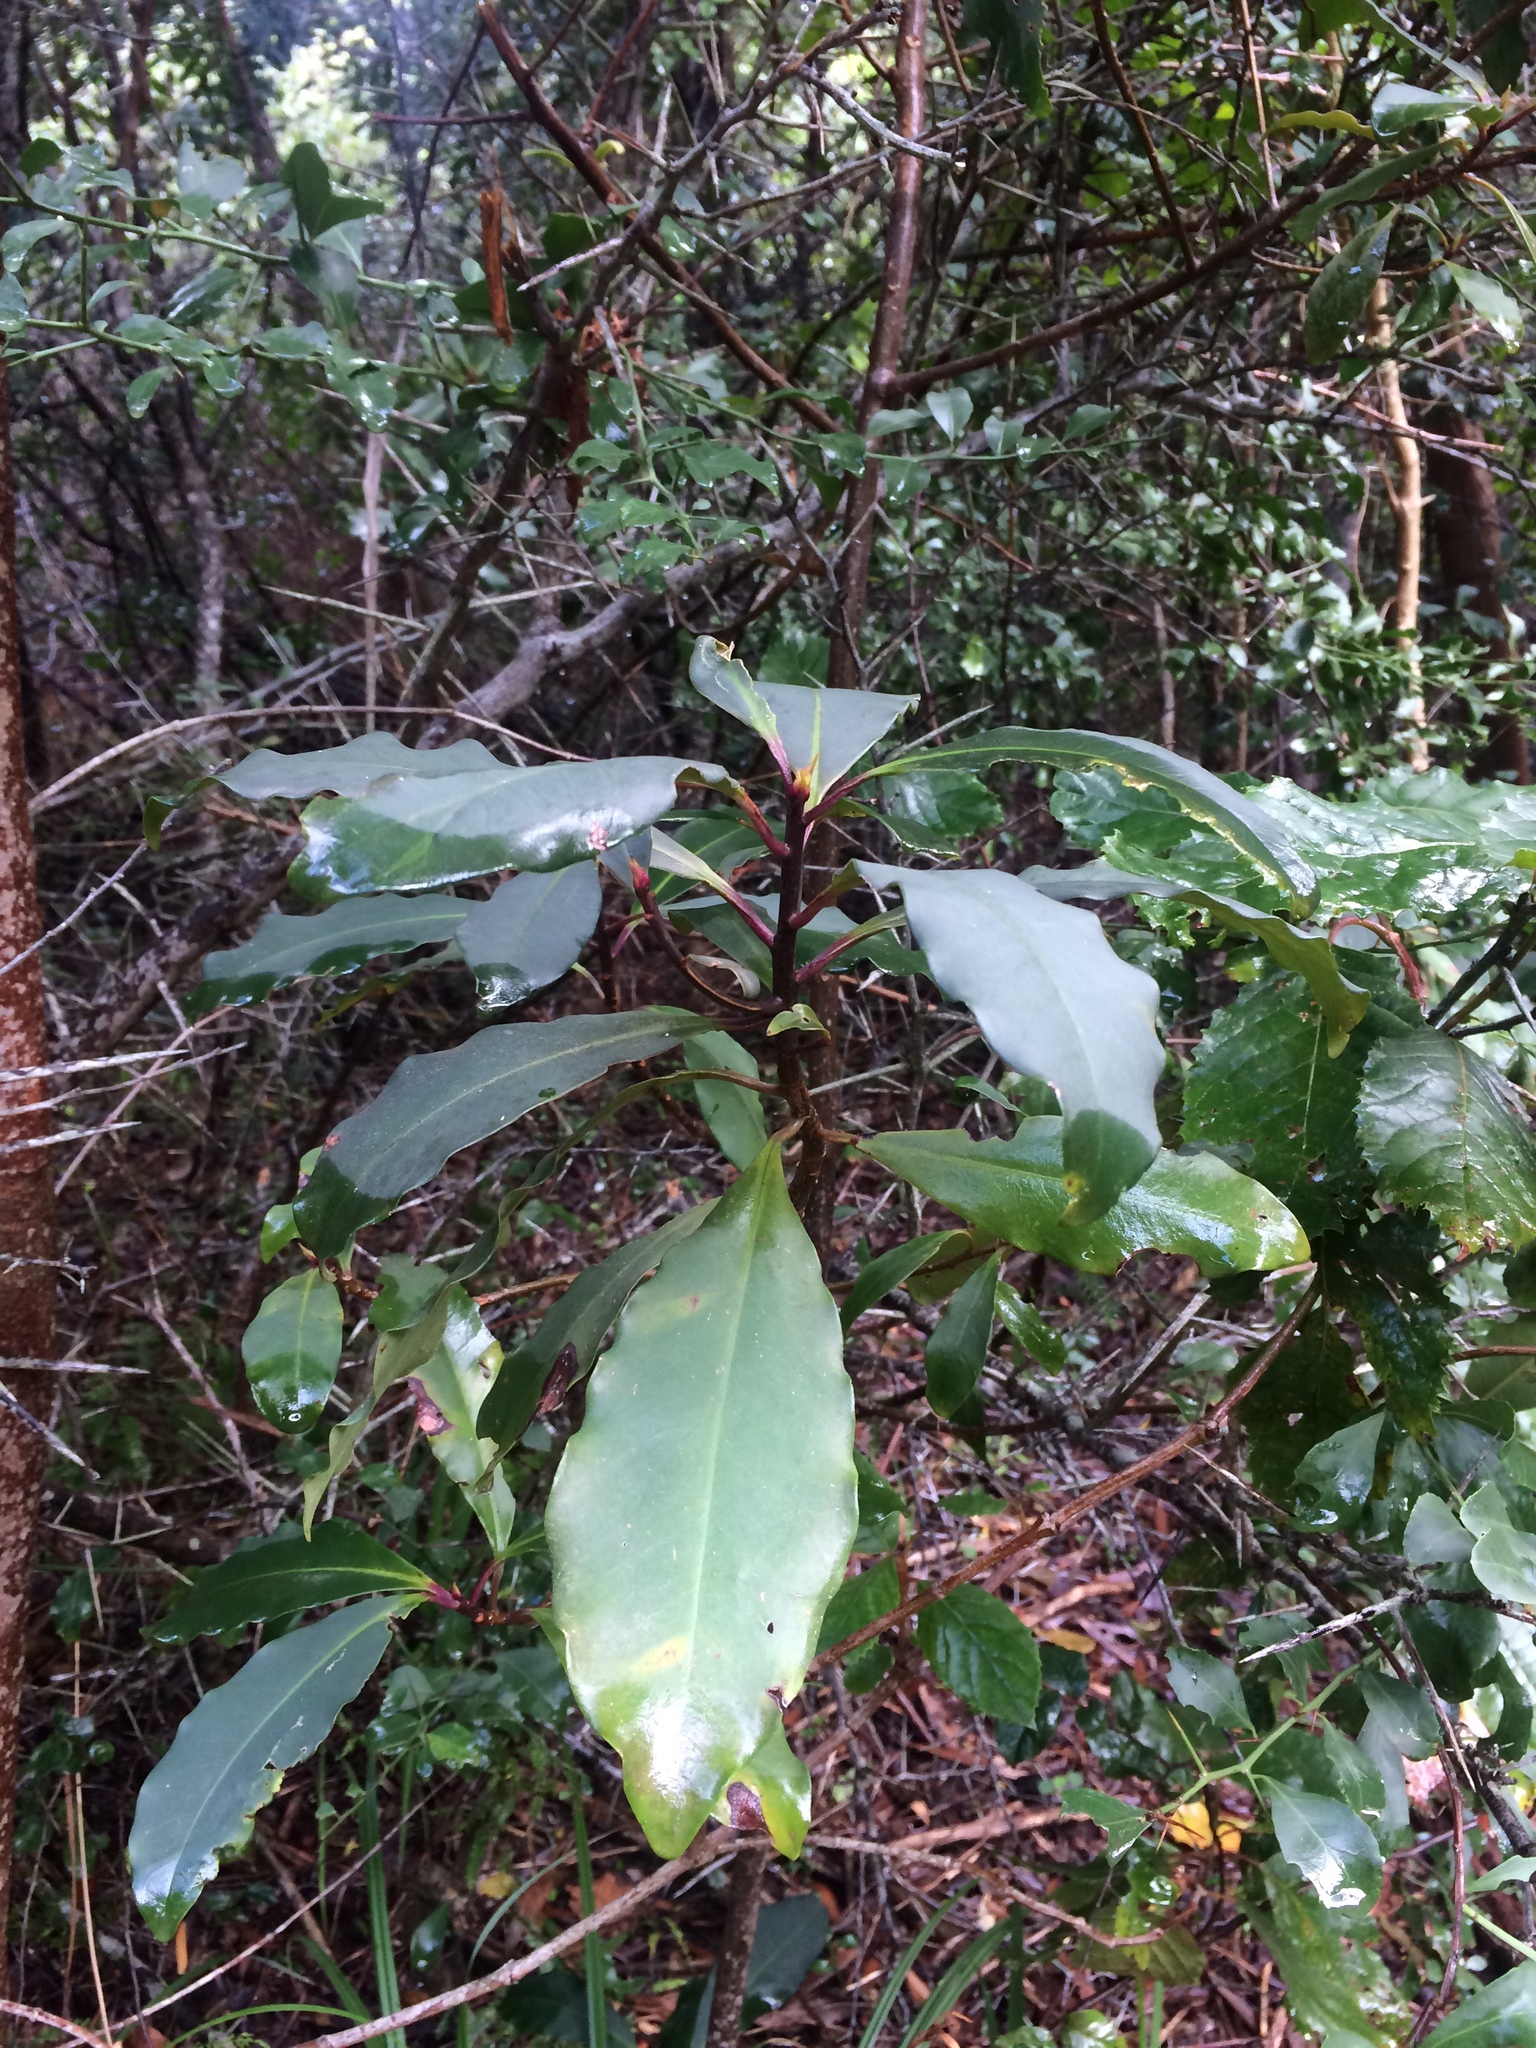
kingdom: Plantae
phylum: Tracheophyta
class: Magnoliopsida
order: Ericales
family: Primulaceae
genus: Myrsine
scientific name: Myrsine melanophloeos
